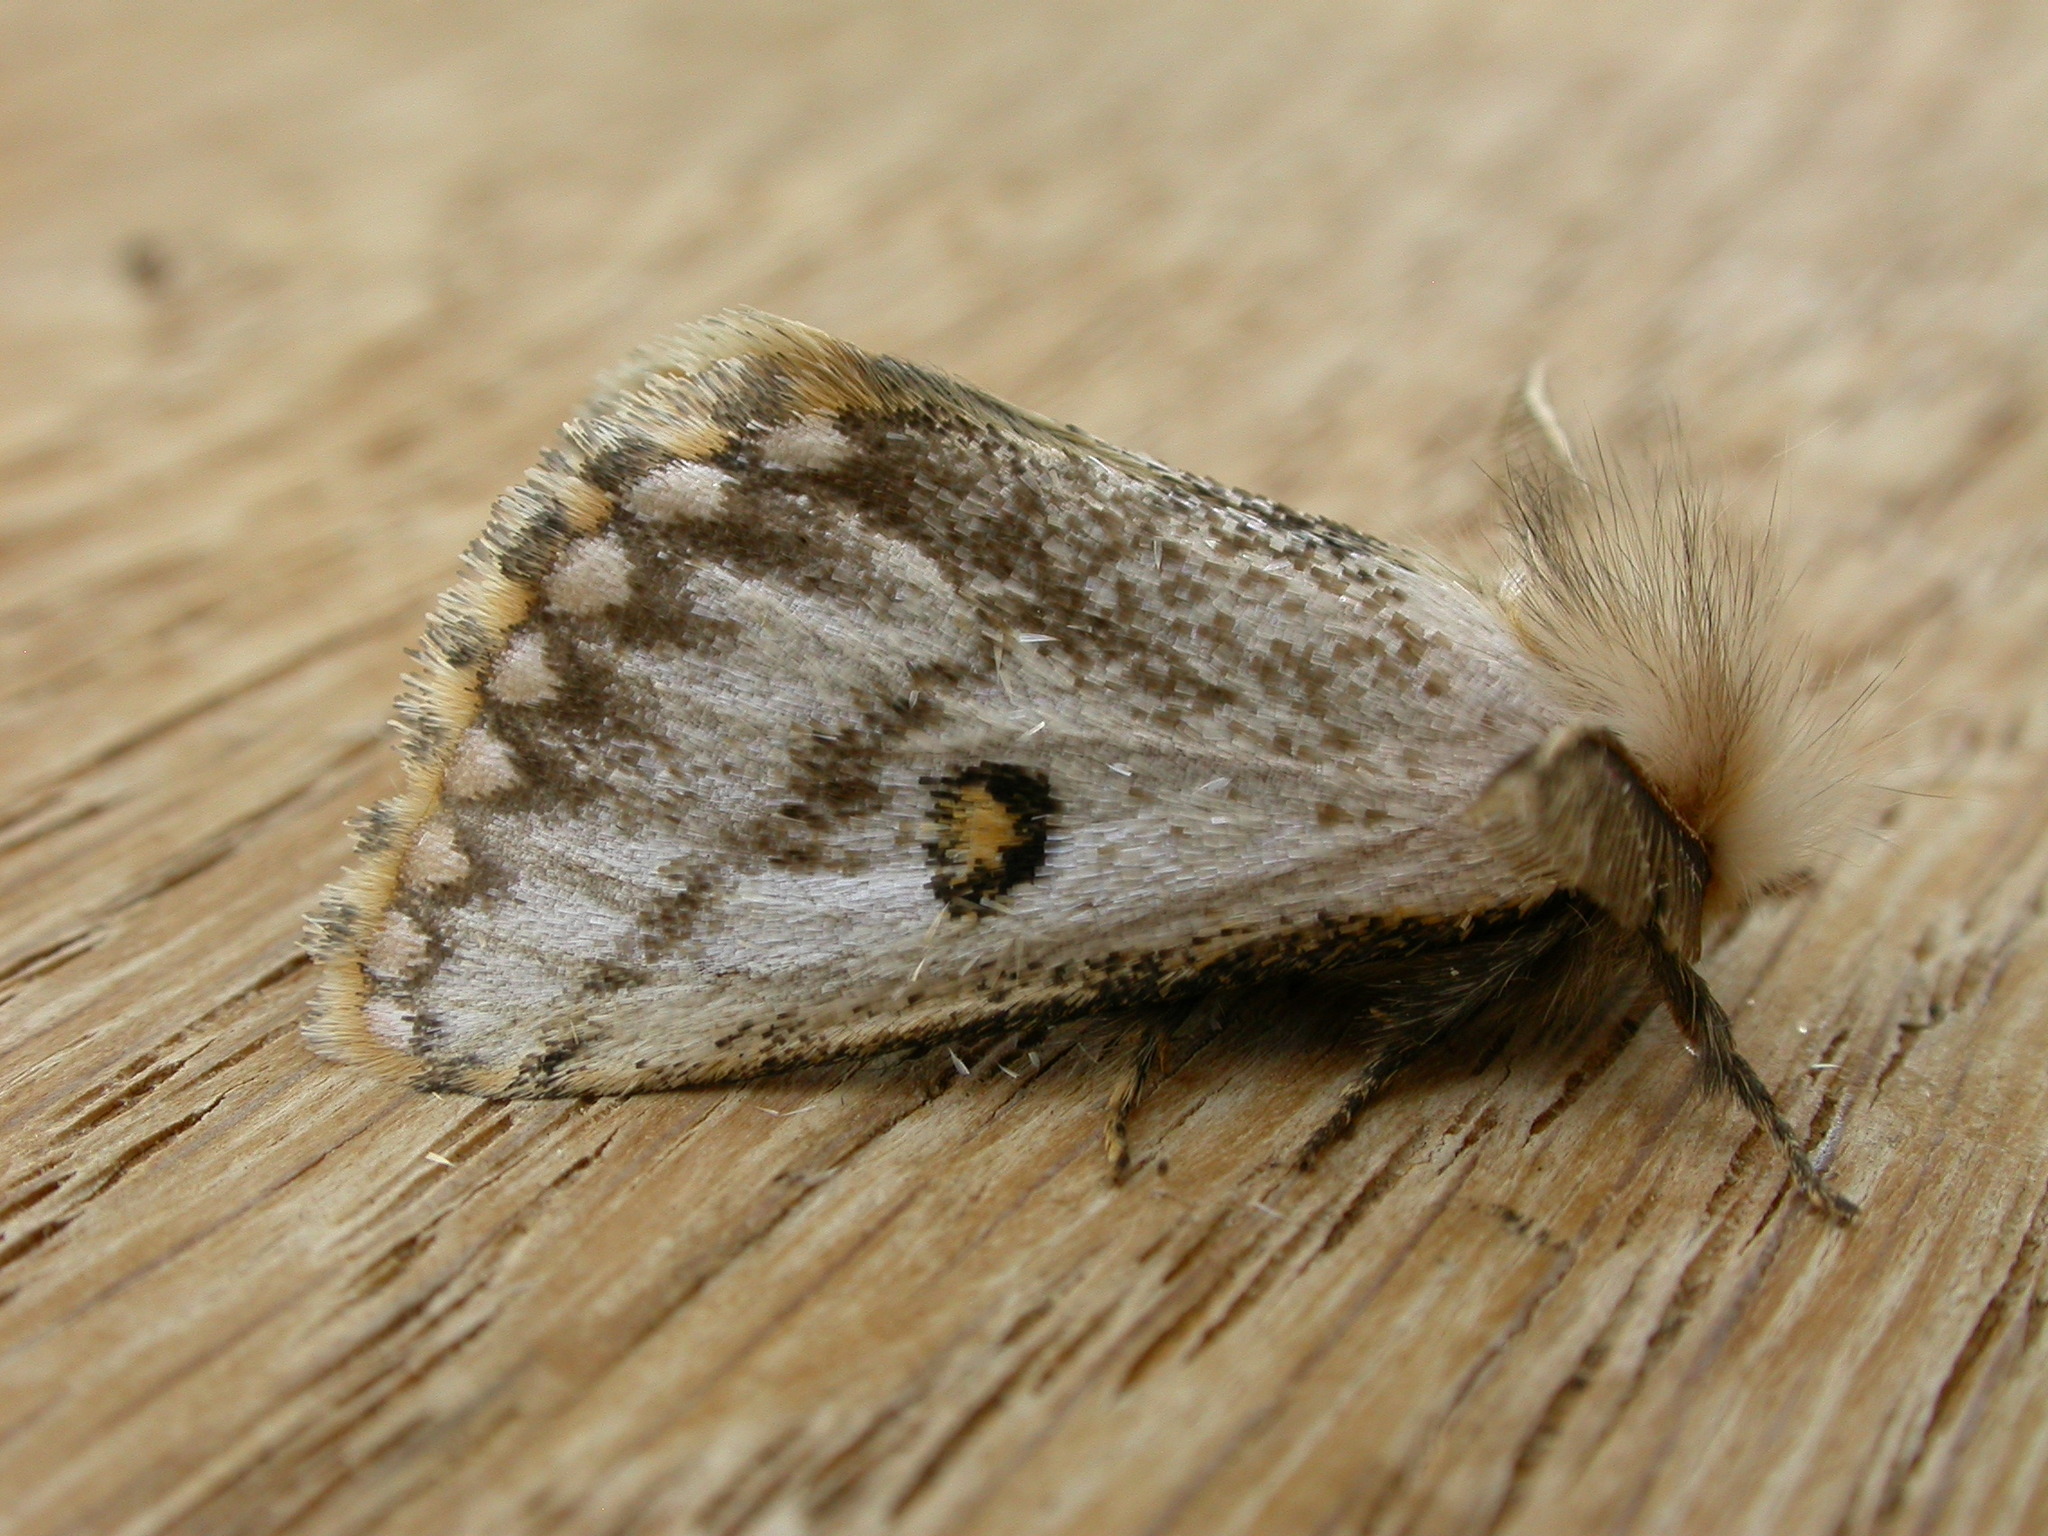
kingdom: Animalia
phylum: Arthropoda
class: Insecta
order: Lepidoptera
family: Notodontidae
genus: Epicoma
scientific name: Epicoma melanosticta
